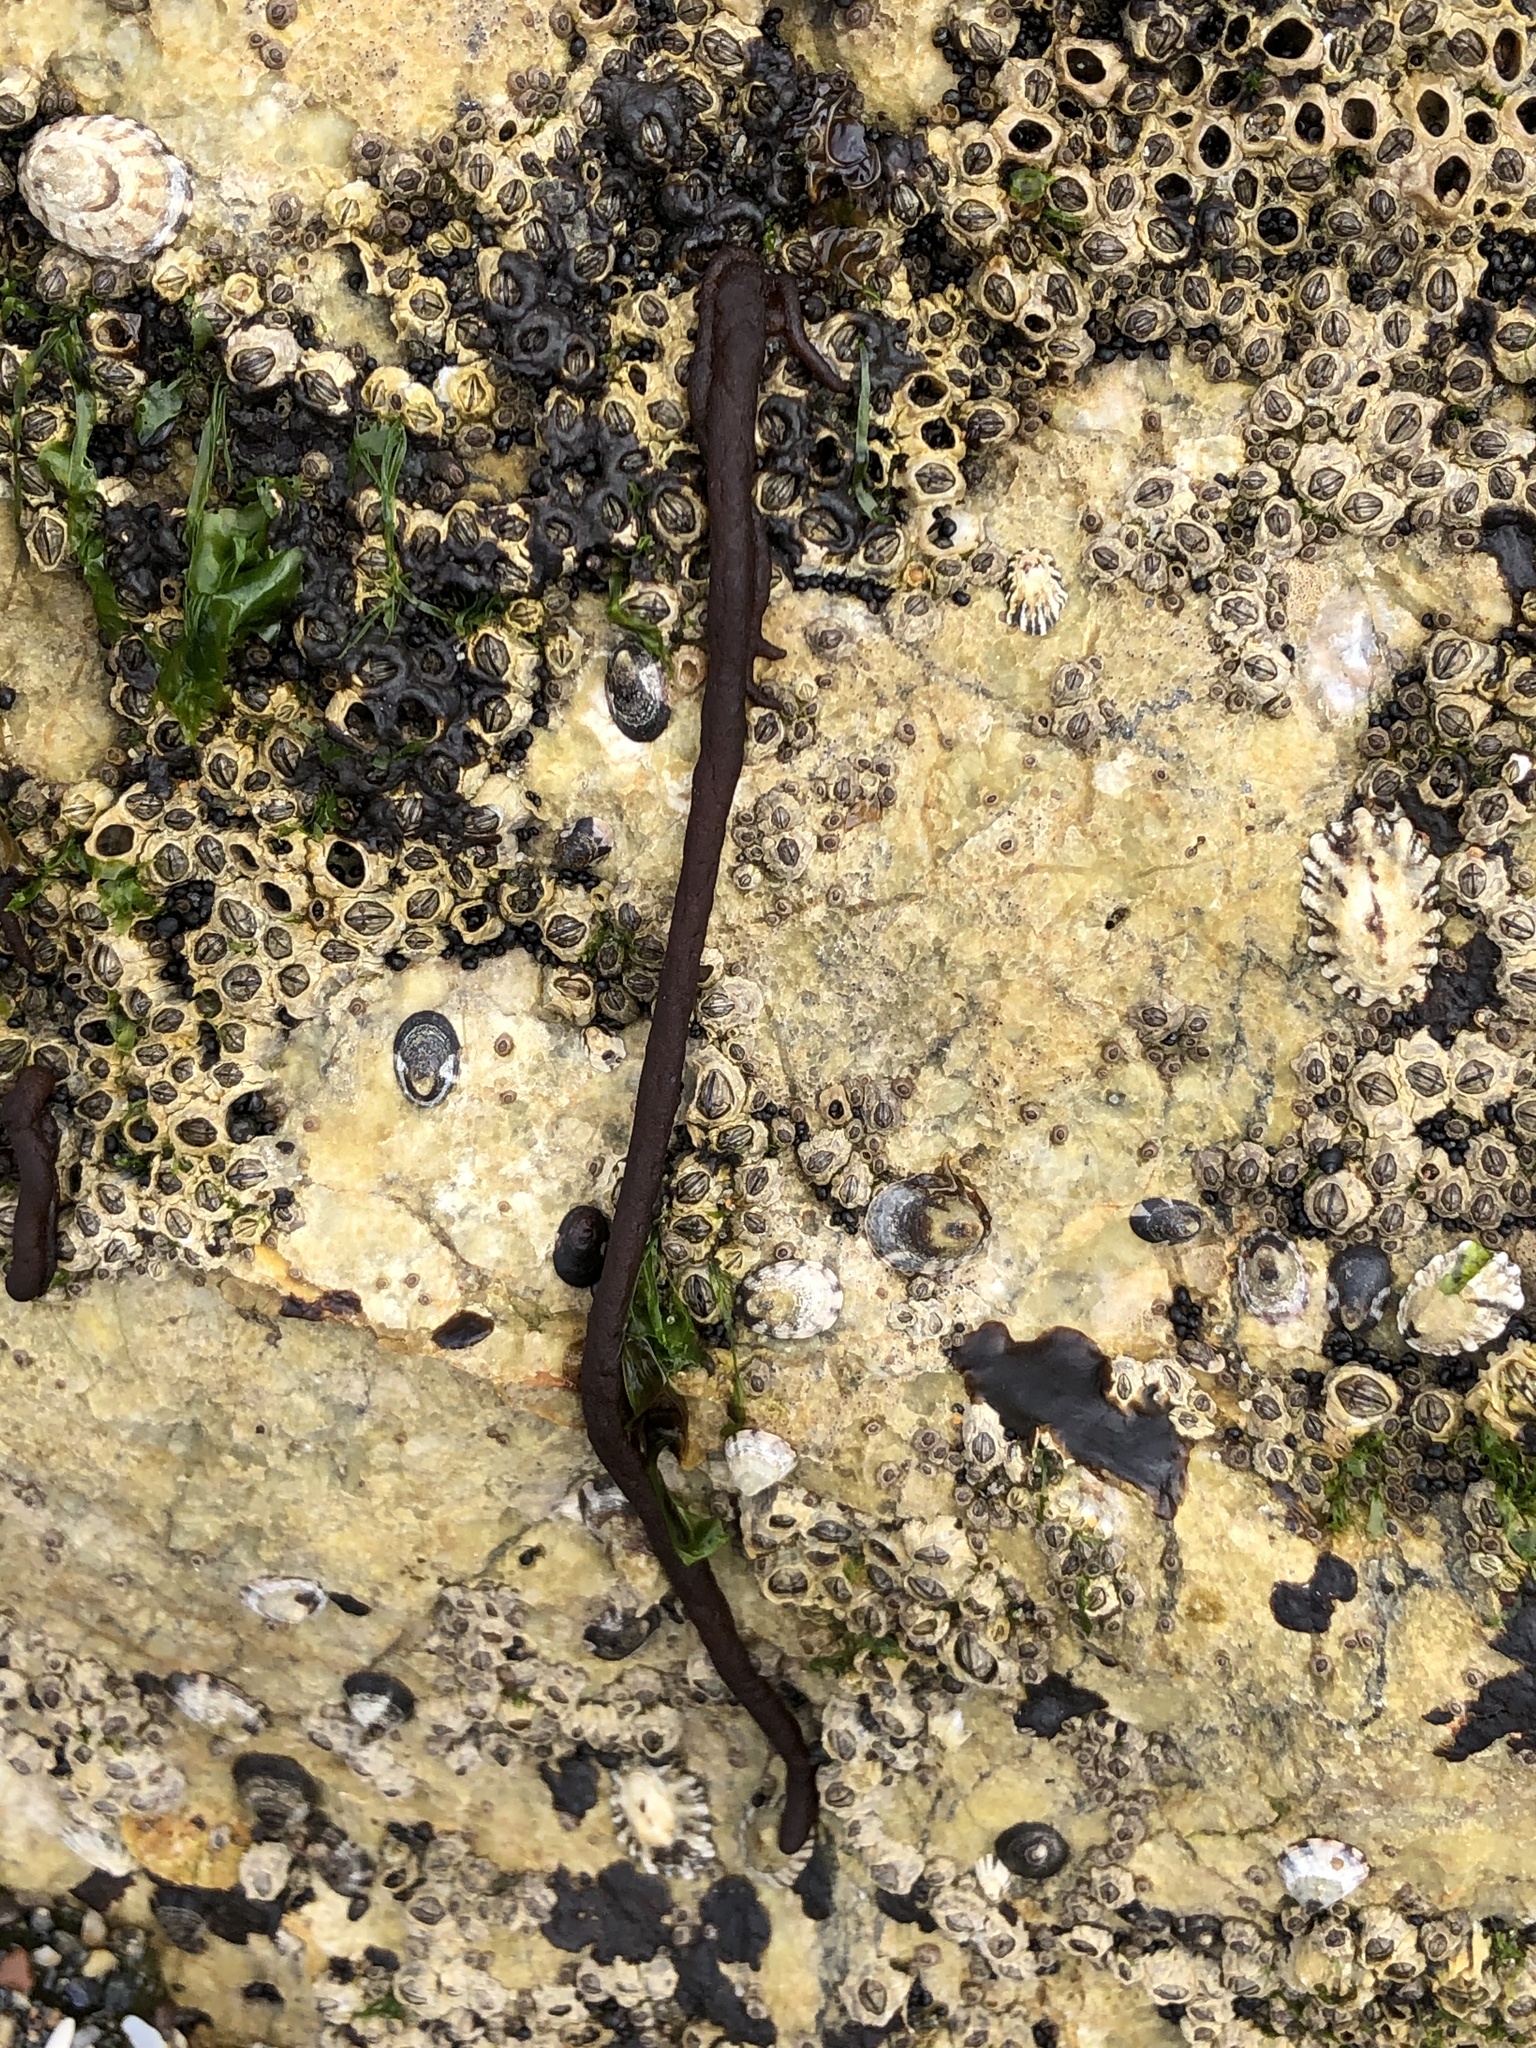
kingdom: Plantae
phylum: Rhodophyta
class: Florideophyceae
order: Nemaliales
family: Nemaliaceae
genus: Nemalion
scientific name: Nemalion elminthoides
